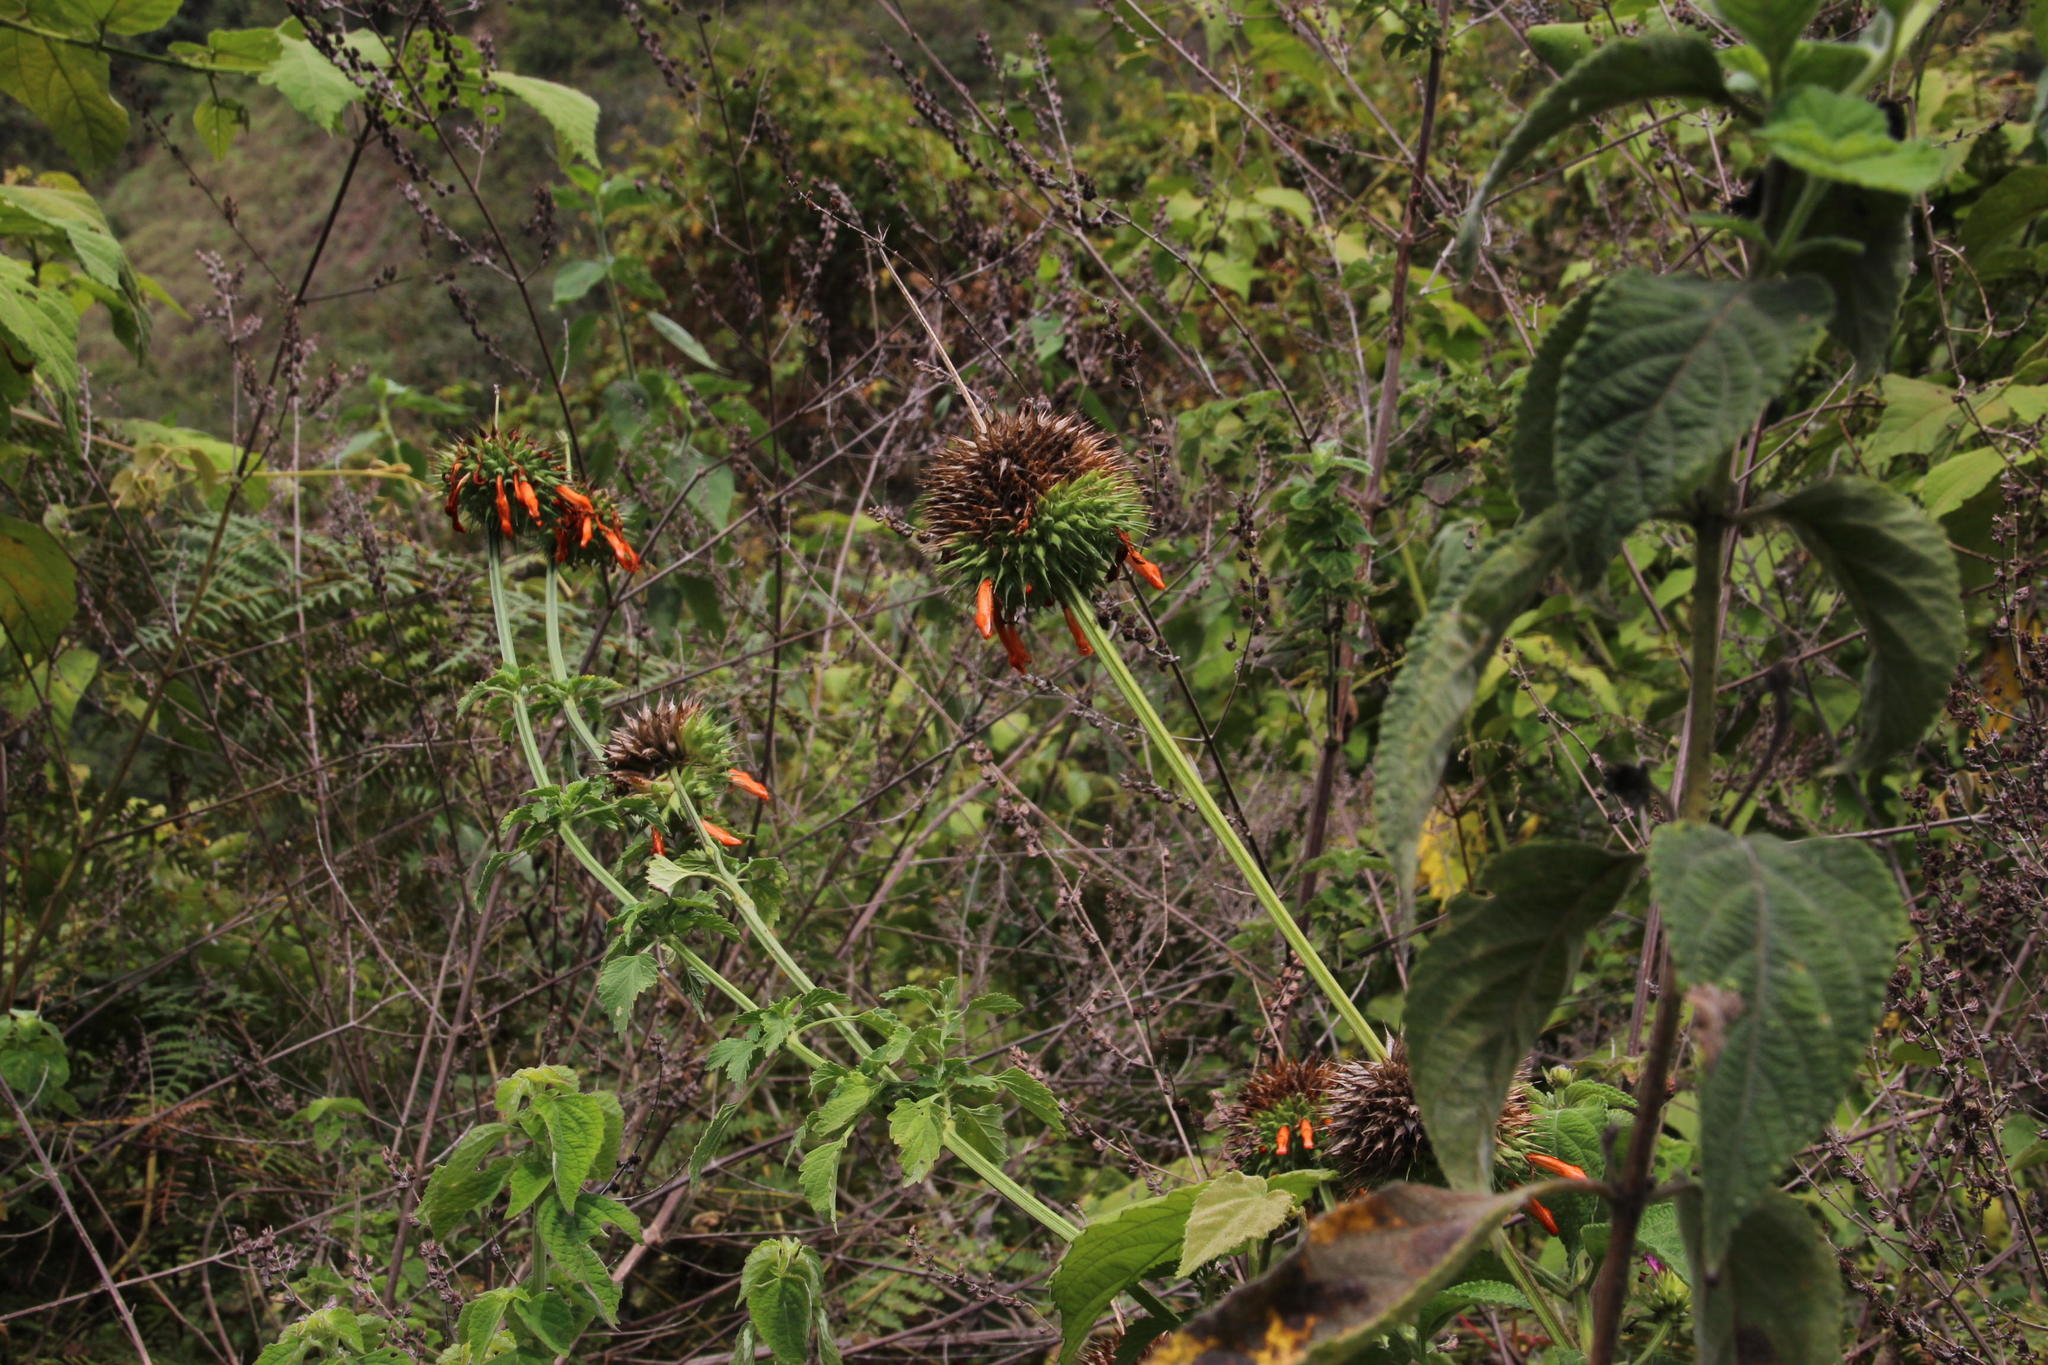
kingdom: Plantae
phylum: Tracheophyta
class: Magnoliopsida
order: Lamiales
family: Lamiaceae
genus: Leonotis
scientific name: Leonotis nepetifolia
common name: Christmas candlestick
